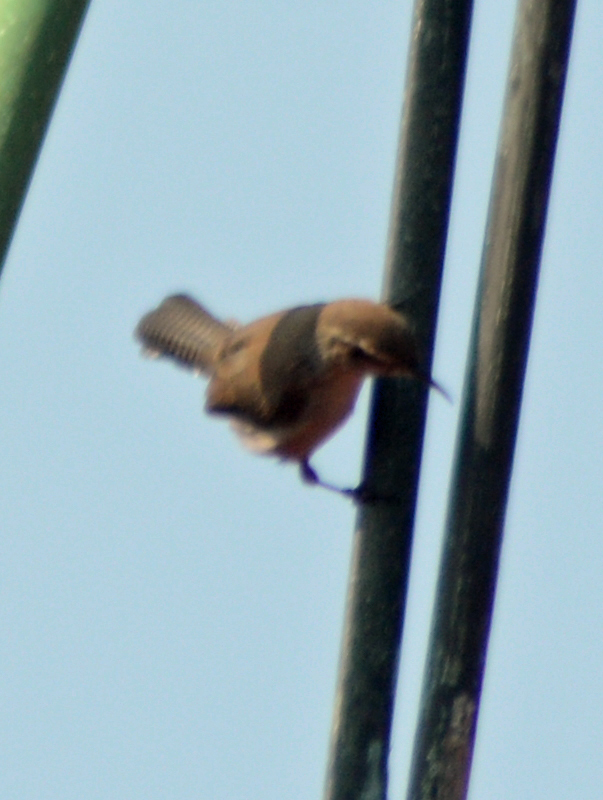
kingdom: Animalia
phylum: Chordata
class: Aves
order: Passeriformes
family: Troglodytidae
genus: Thryomanes
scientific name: Thryomanes bewickii
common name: Bewick's wren
